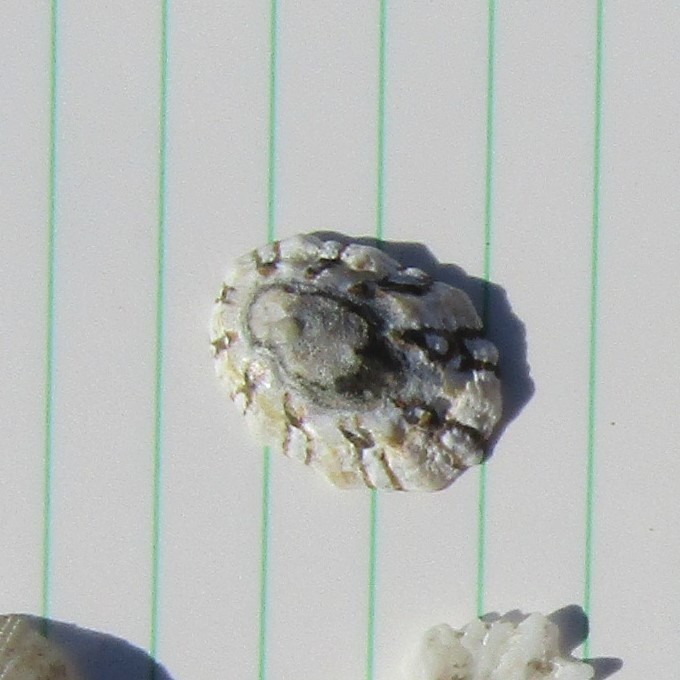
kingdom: Animalia
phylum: Mollusca
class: Gastropoda
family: Nacellidae
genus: Cellana
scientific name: Cellana ornata
